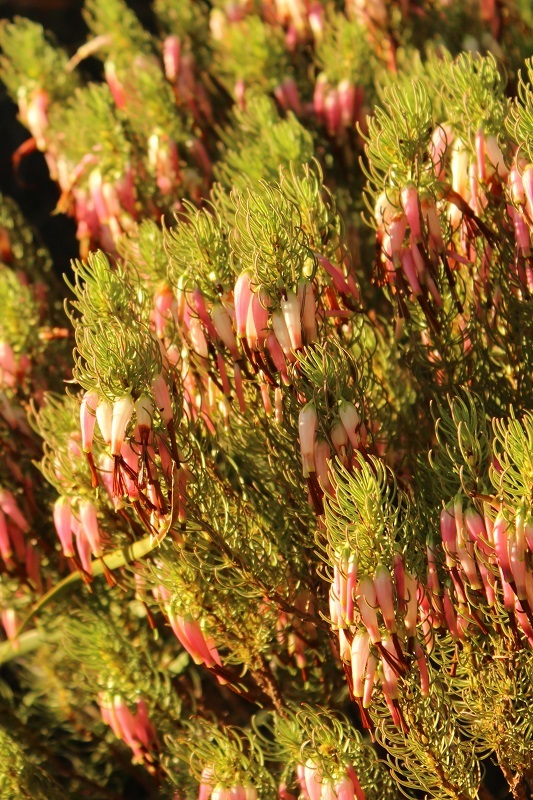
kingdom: Plantae
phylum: Tracheophyta
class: Magnoliopsida
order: Ericales
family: Ericaceae
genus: Erica
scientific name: Erica plukenetii
